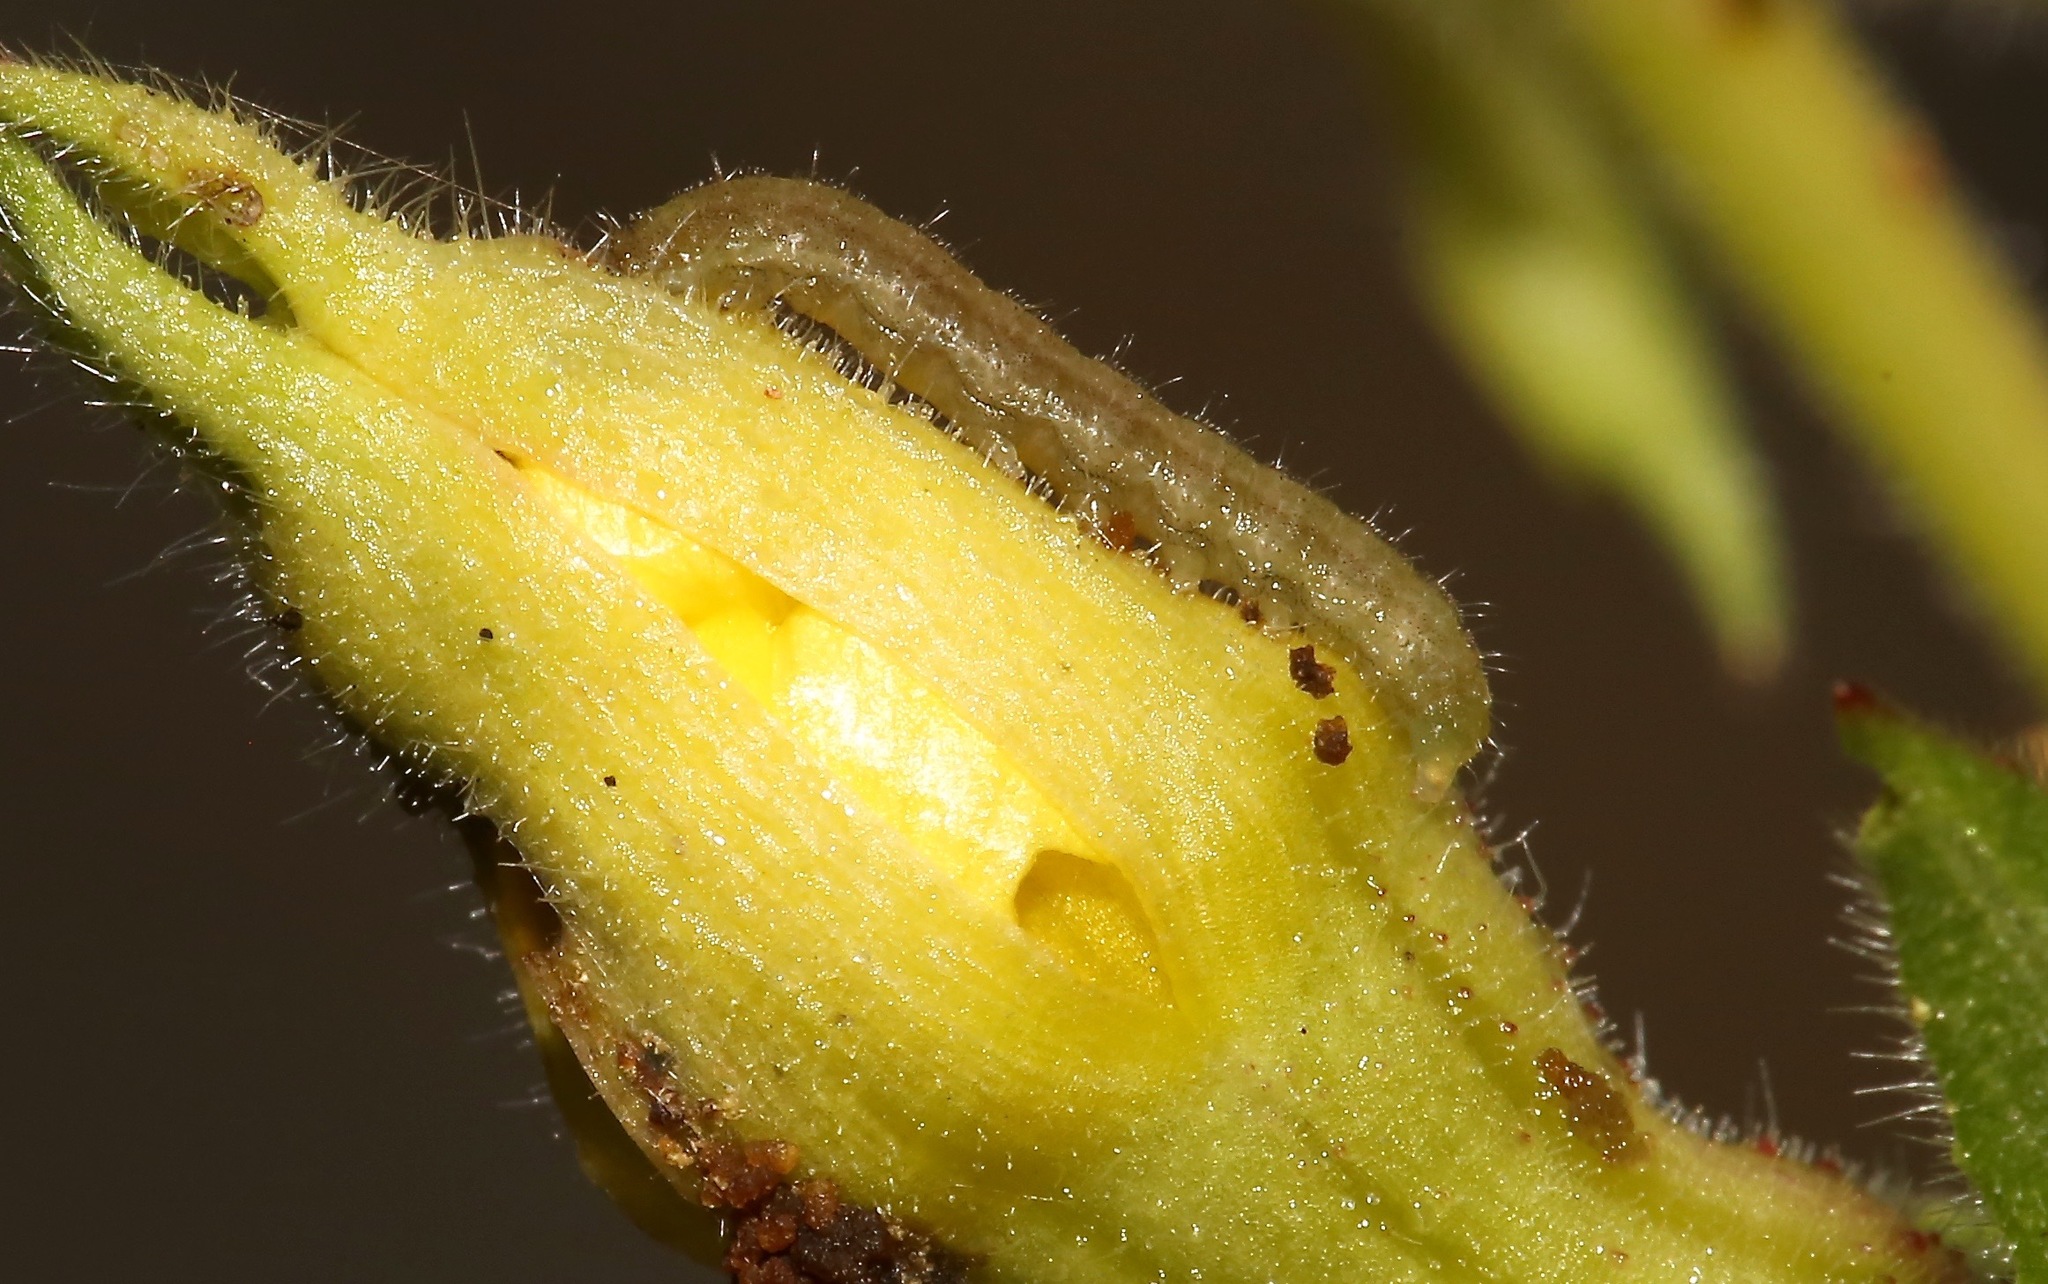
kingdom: Animalia
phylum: Arthropoda
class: Insecta
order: Lepidoptera
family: Noctuidae
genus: Schinia
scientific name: Schinia florida
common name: Primrose moth
